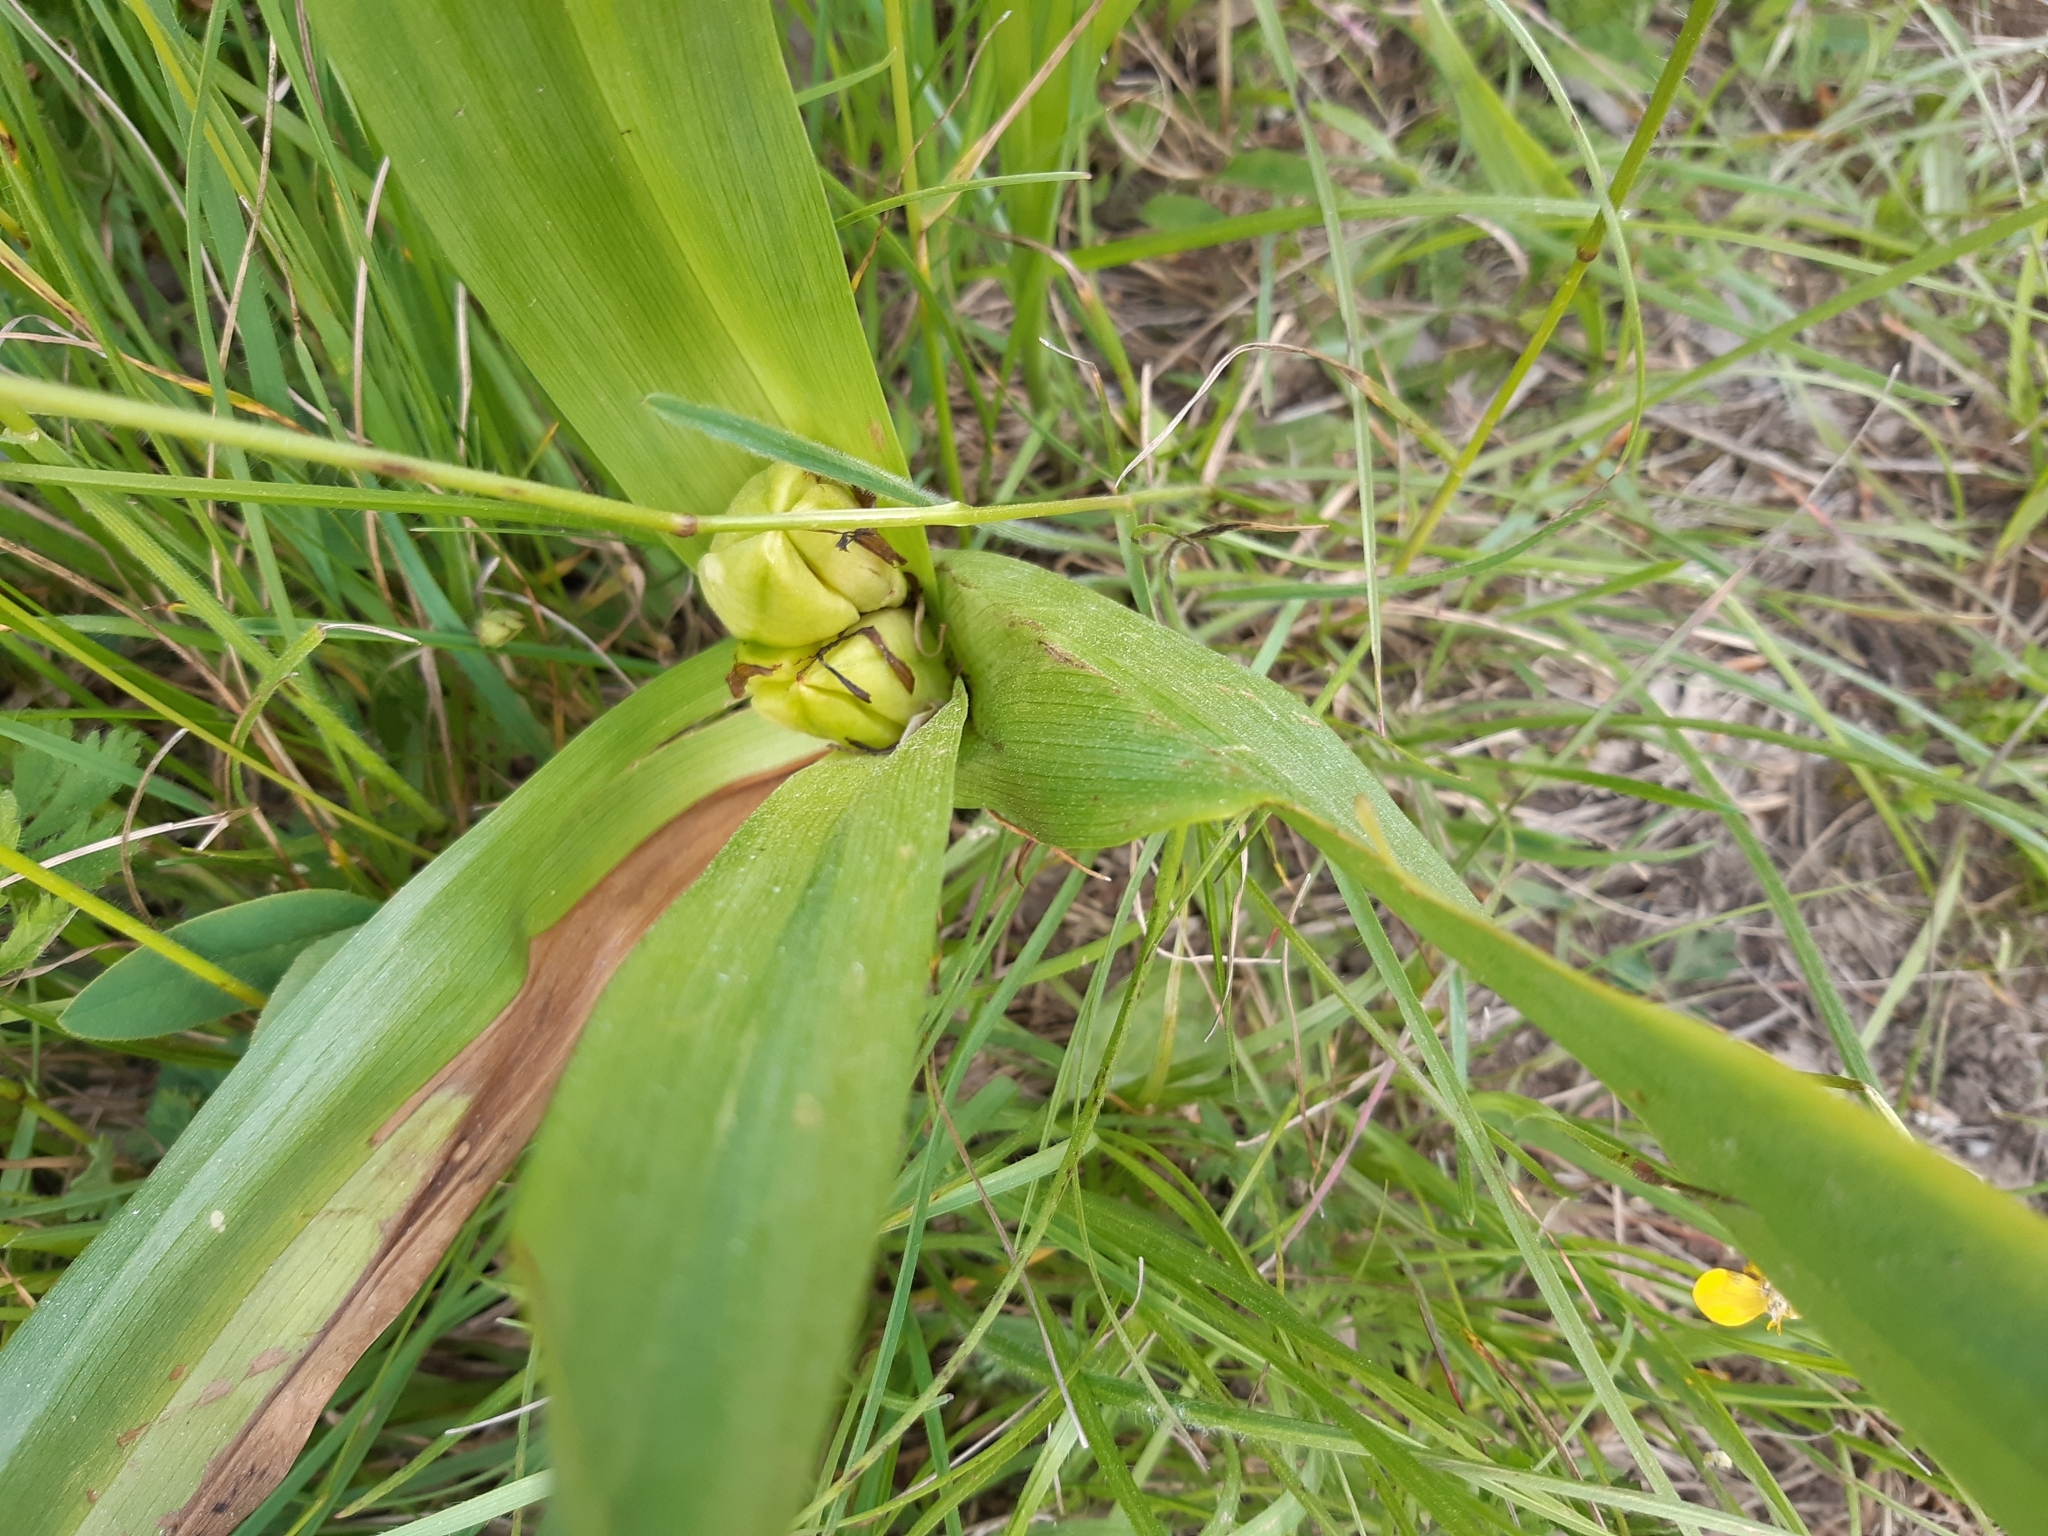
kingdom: Plantae
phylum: Tracheophyta
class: Liliopsida
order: Liliales
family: Colchicaceae
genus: Colchicum
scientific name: Colchicum autumnale
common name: Autumn crocus
